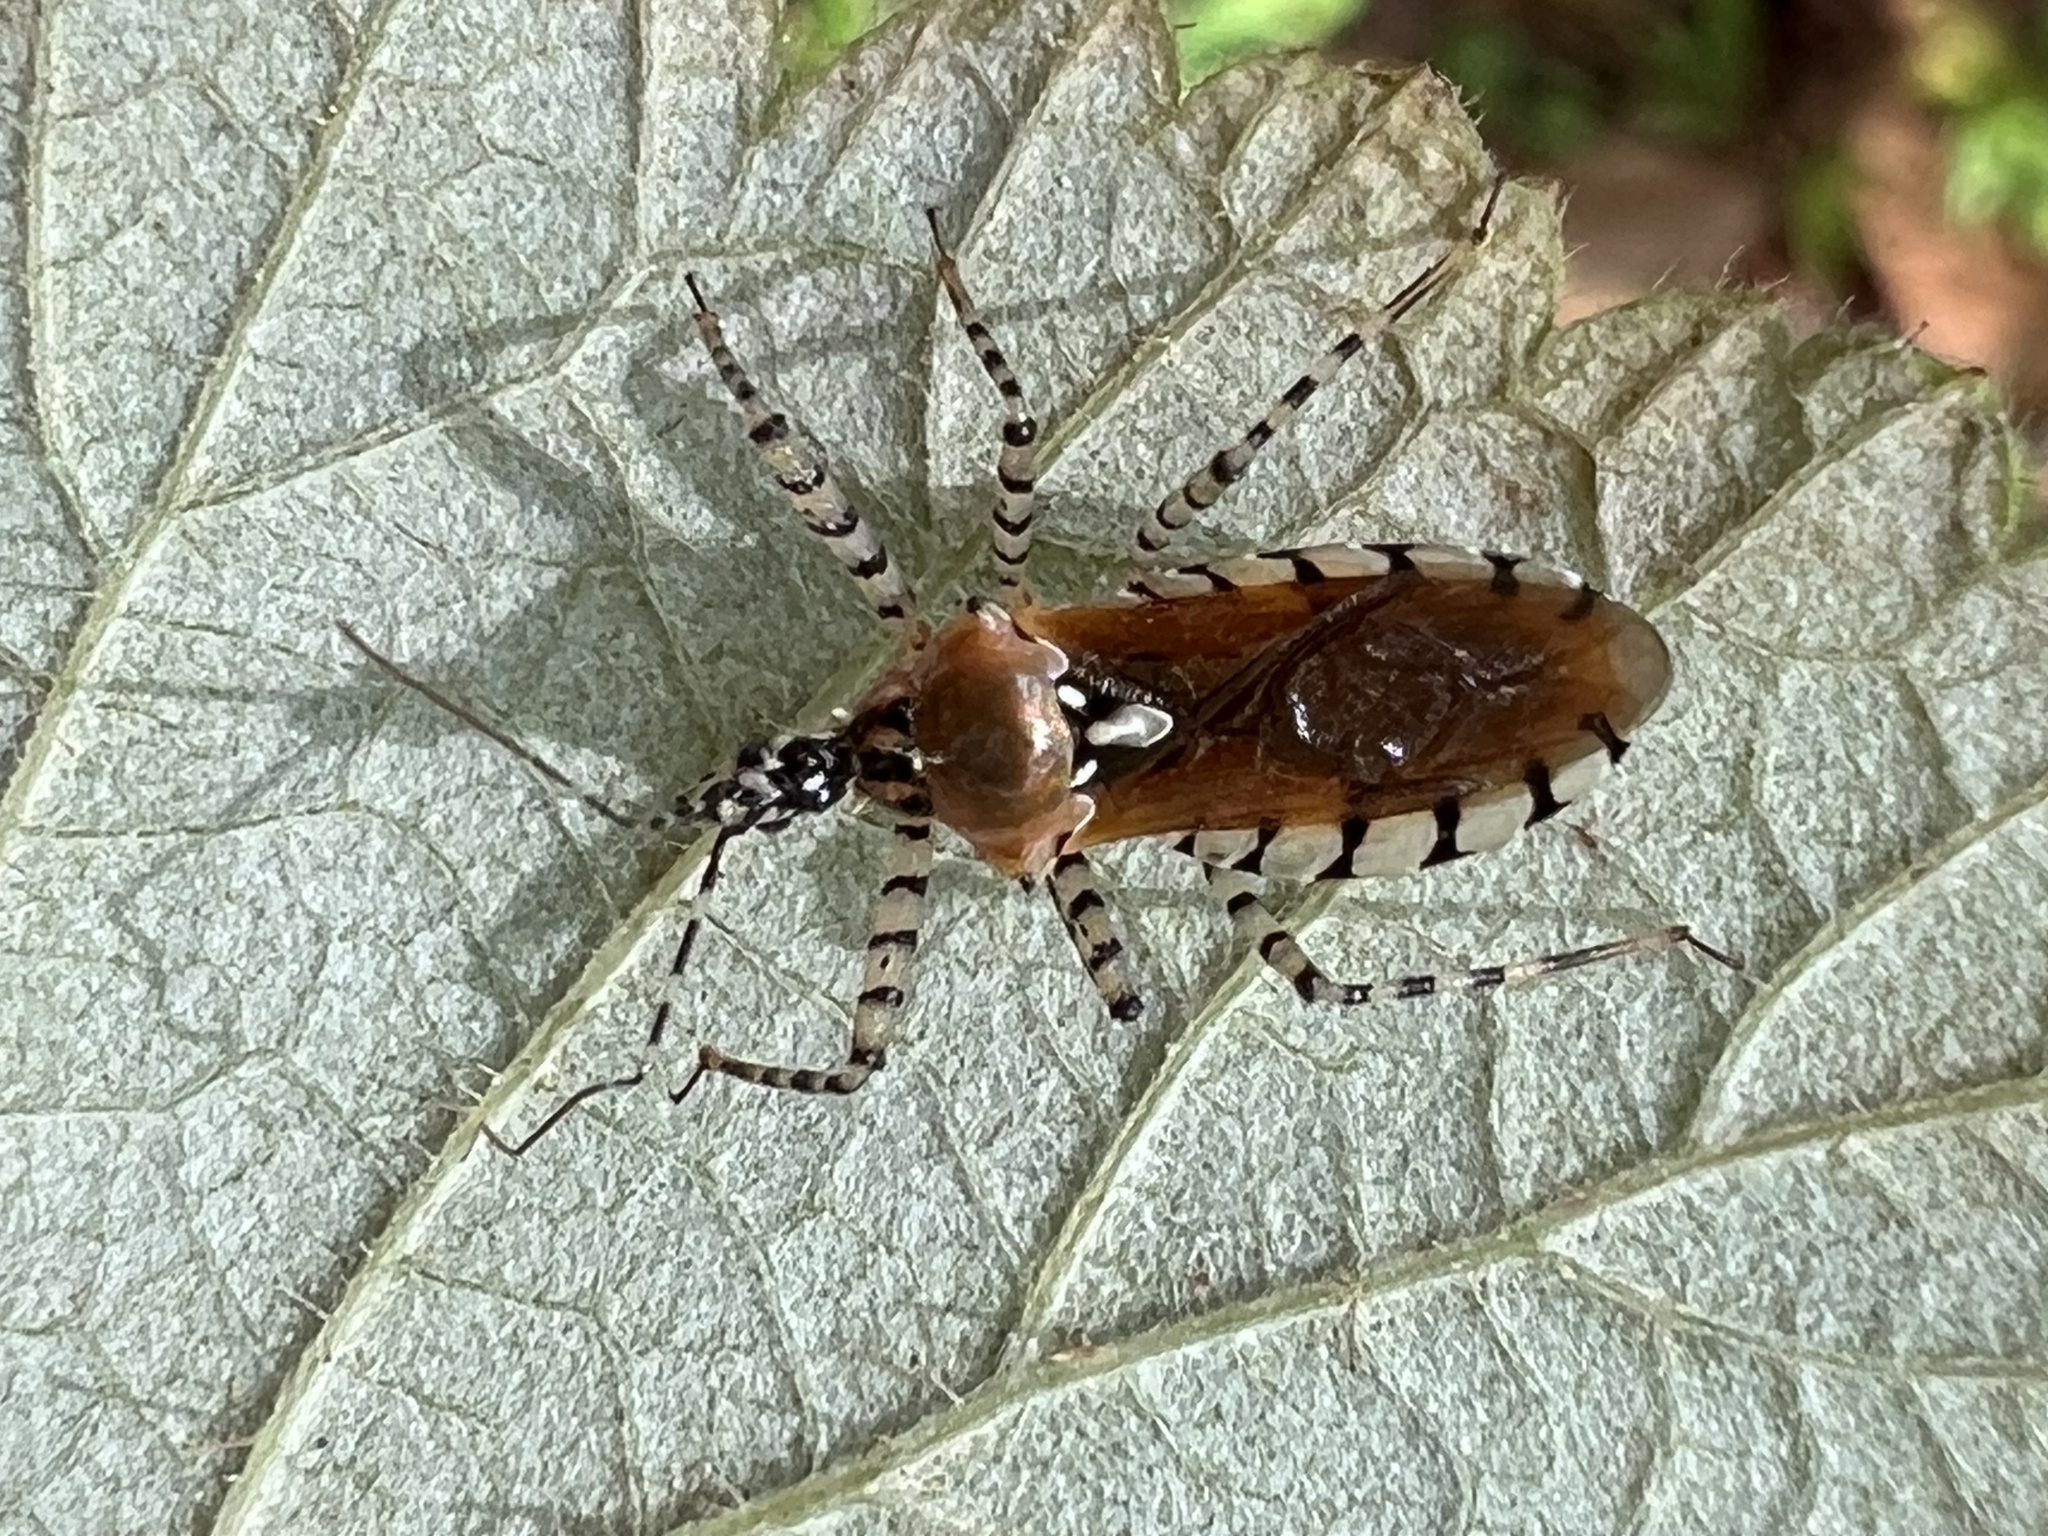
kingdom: Animalia
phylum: Arthropoda
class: Insecta
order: Hemiptera
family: Reduviidae
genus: Pselliopus
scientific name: Pselliopus cinctus
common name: Ringed assassin bug
